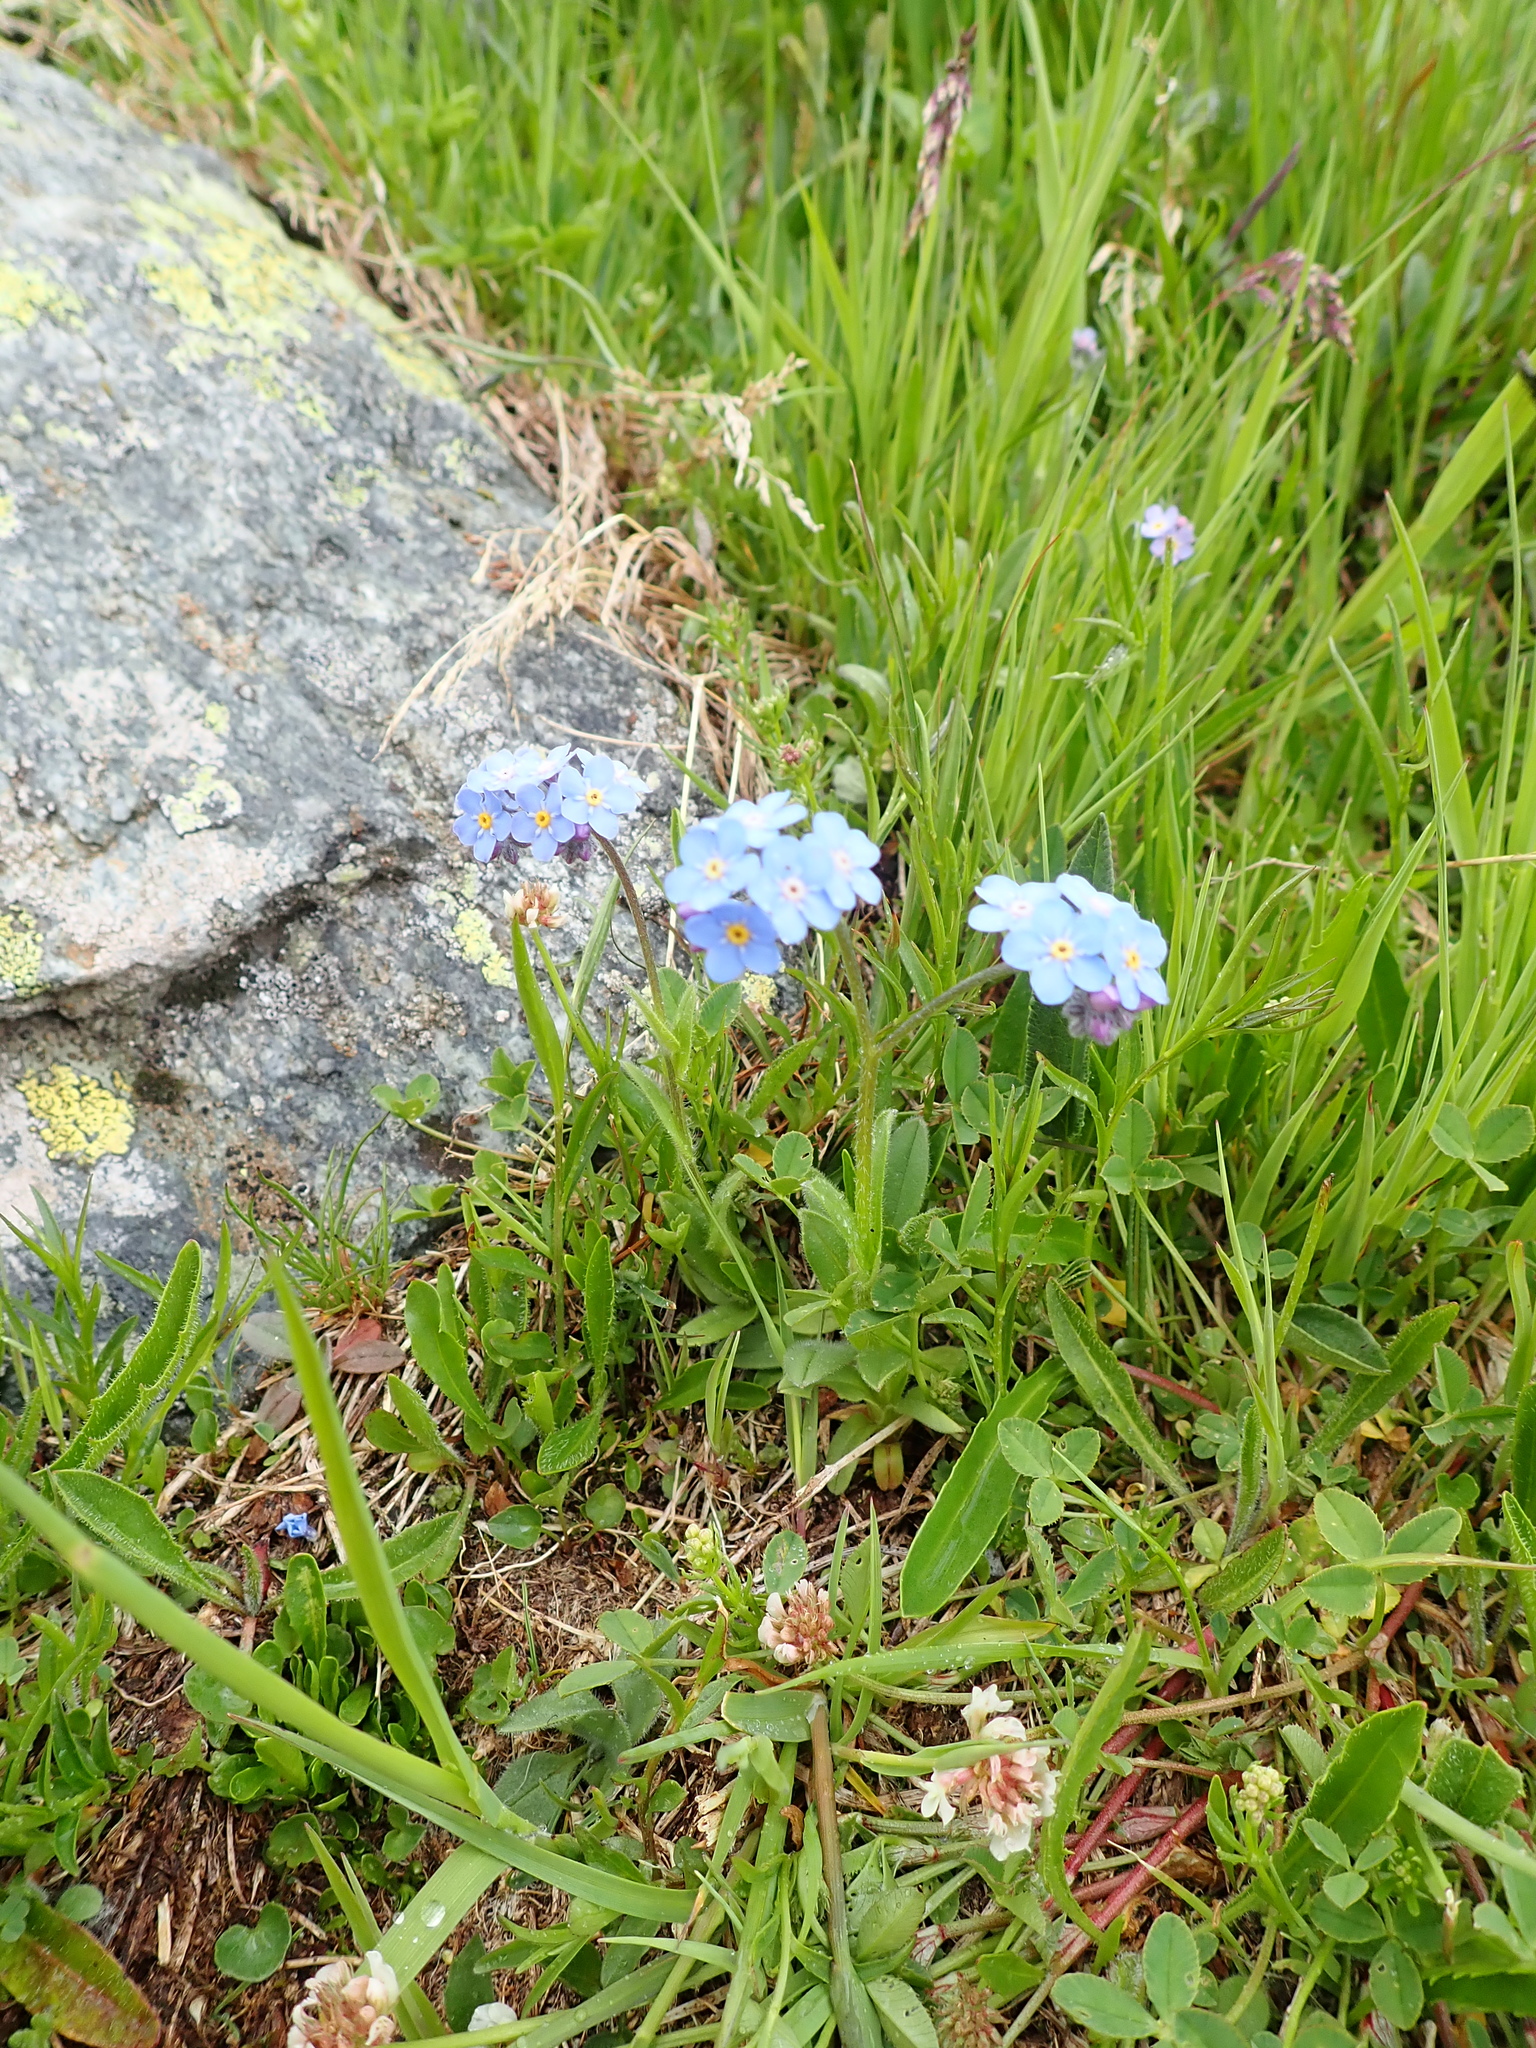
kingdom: Plantae
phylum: Tracheophyta
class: Magnoliopsida
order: Boraginales
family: Boraginaceae
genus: Myosotis
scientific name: Myosotis alpestris
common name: Alpine forget-me-not
